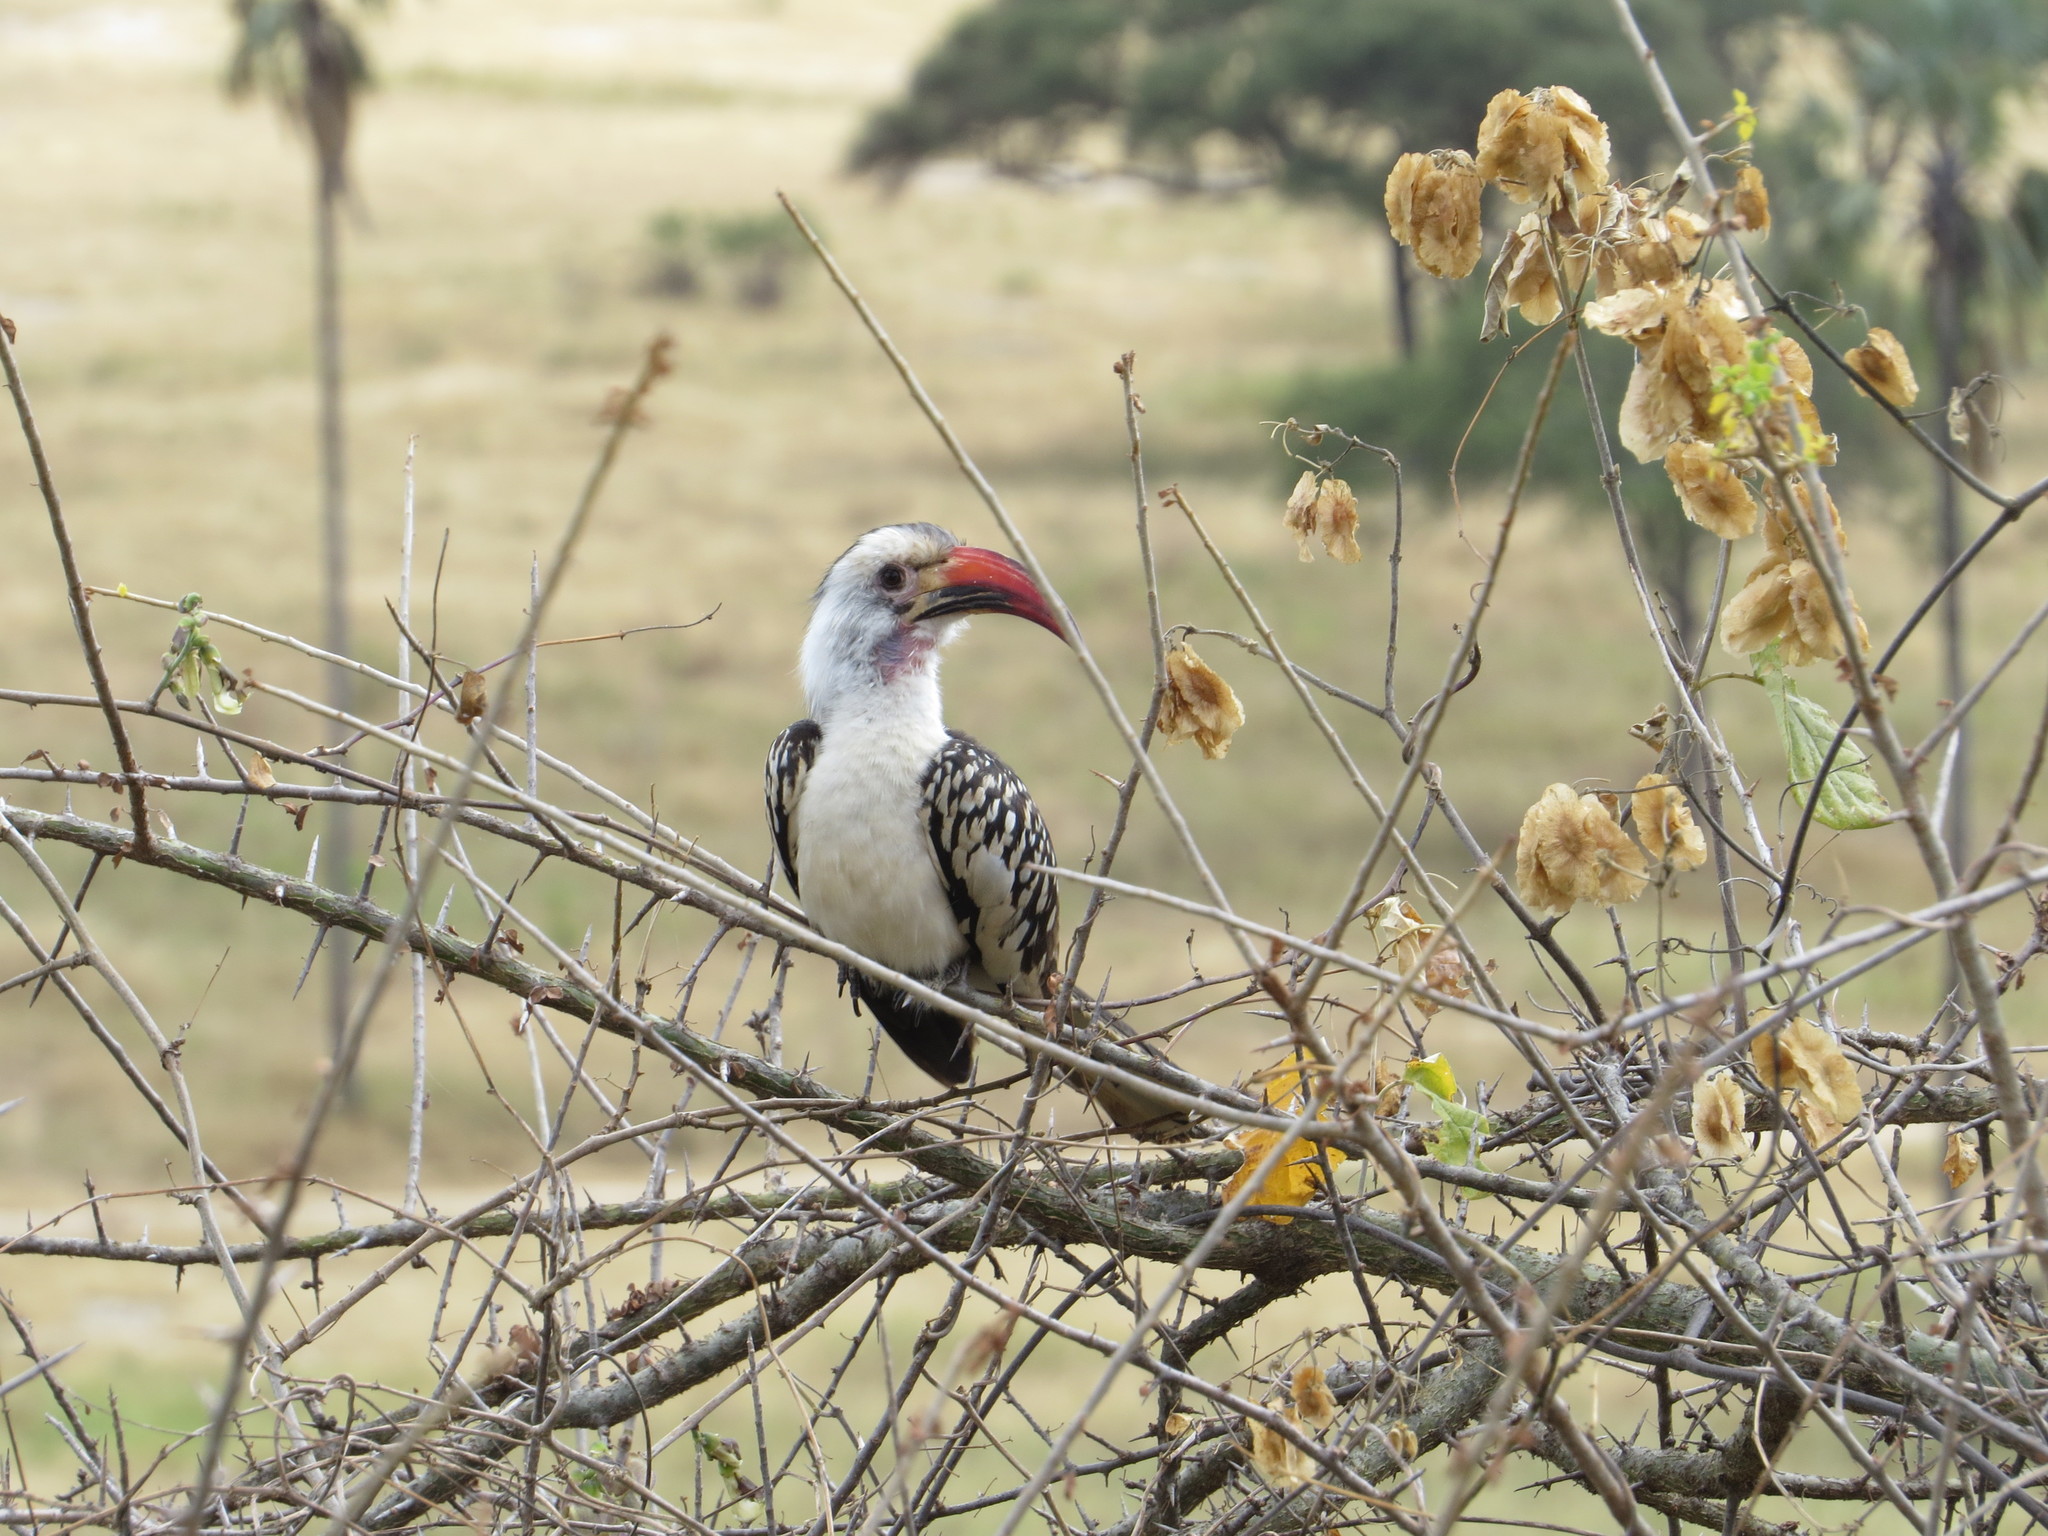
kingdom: Animalia
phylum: Chordata
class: Aves
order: Bucerotiformes
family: Bucerotidae
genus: Tockus
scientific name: Tockus erythrorhynchus
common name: Northern red-billed hornbill
